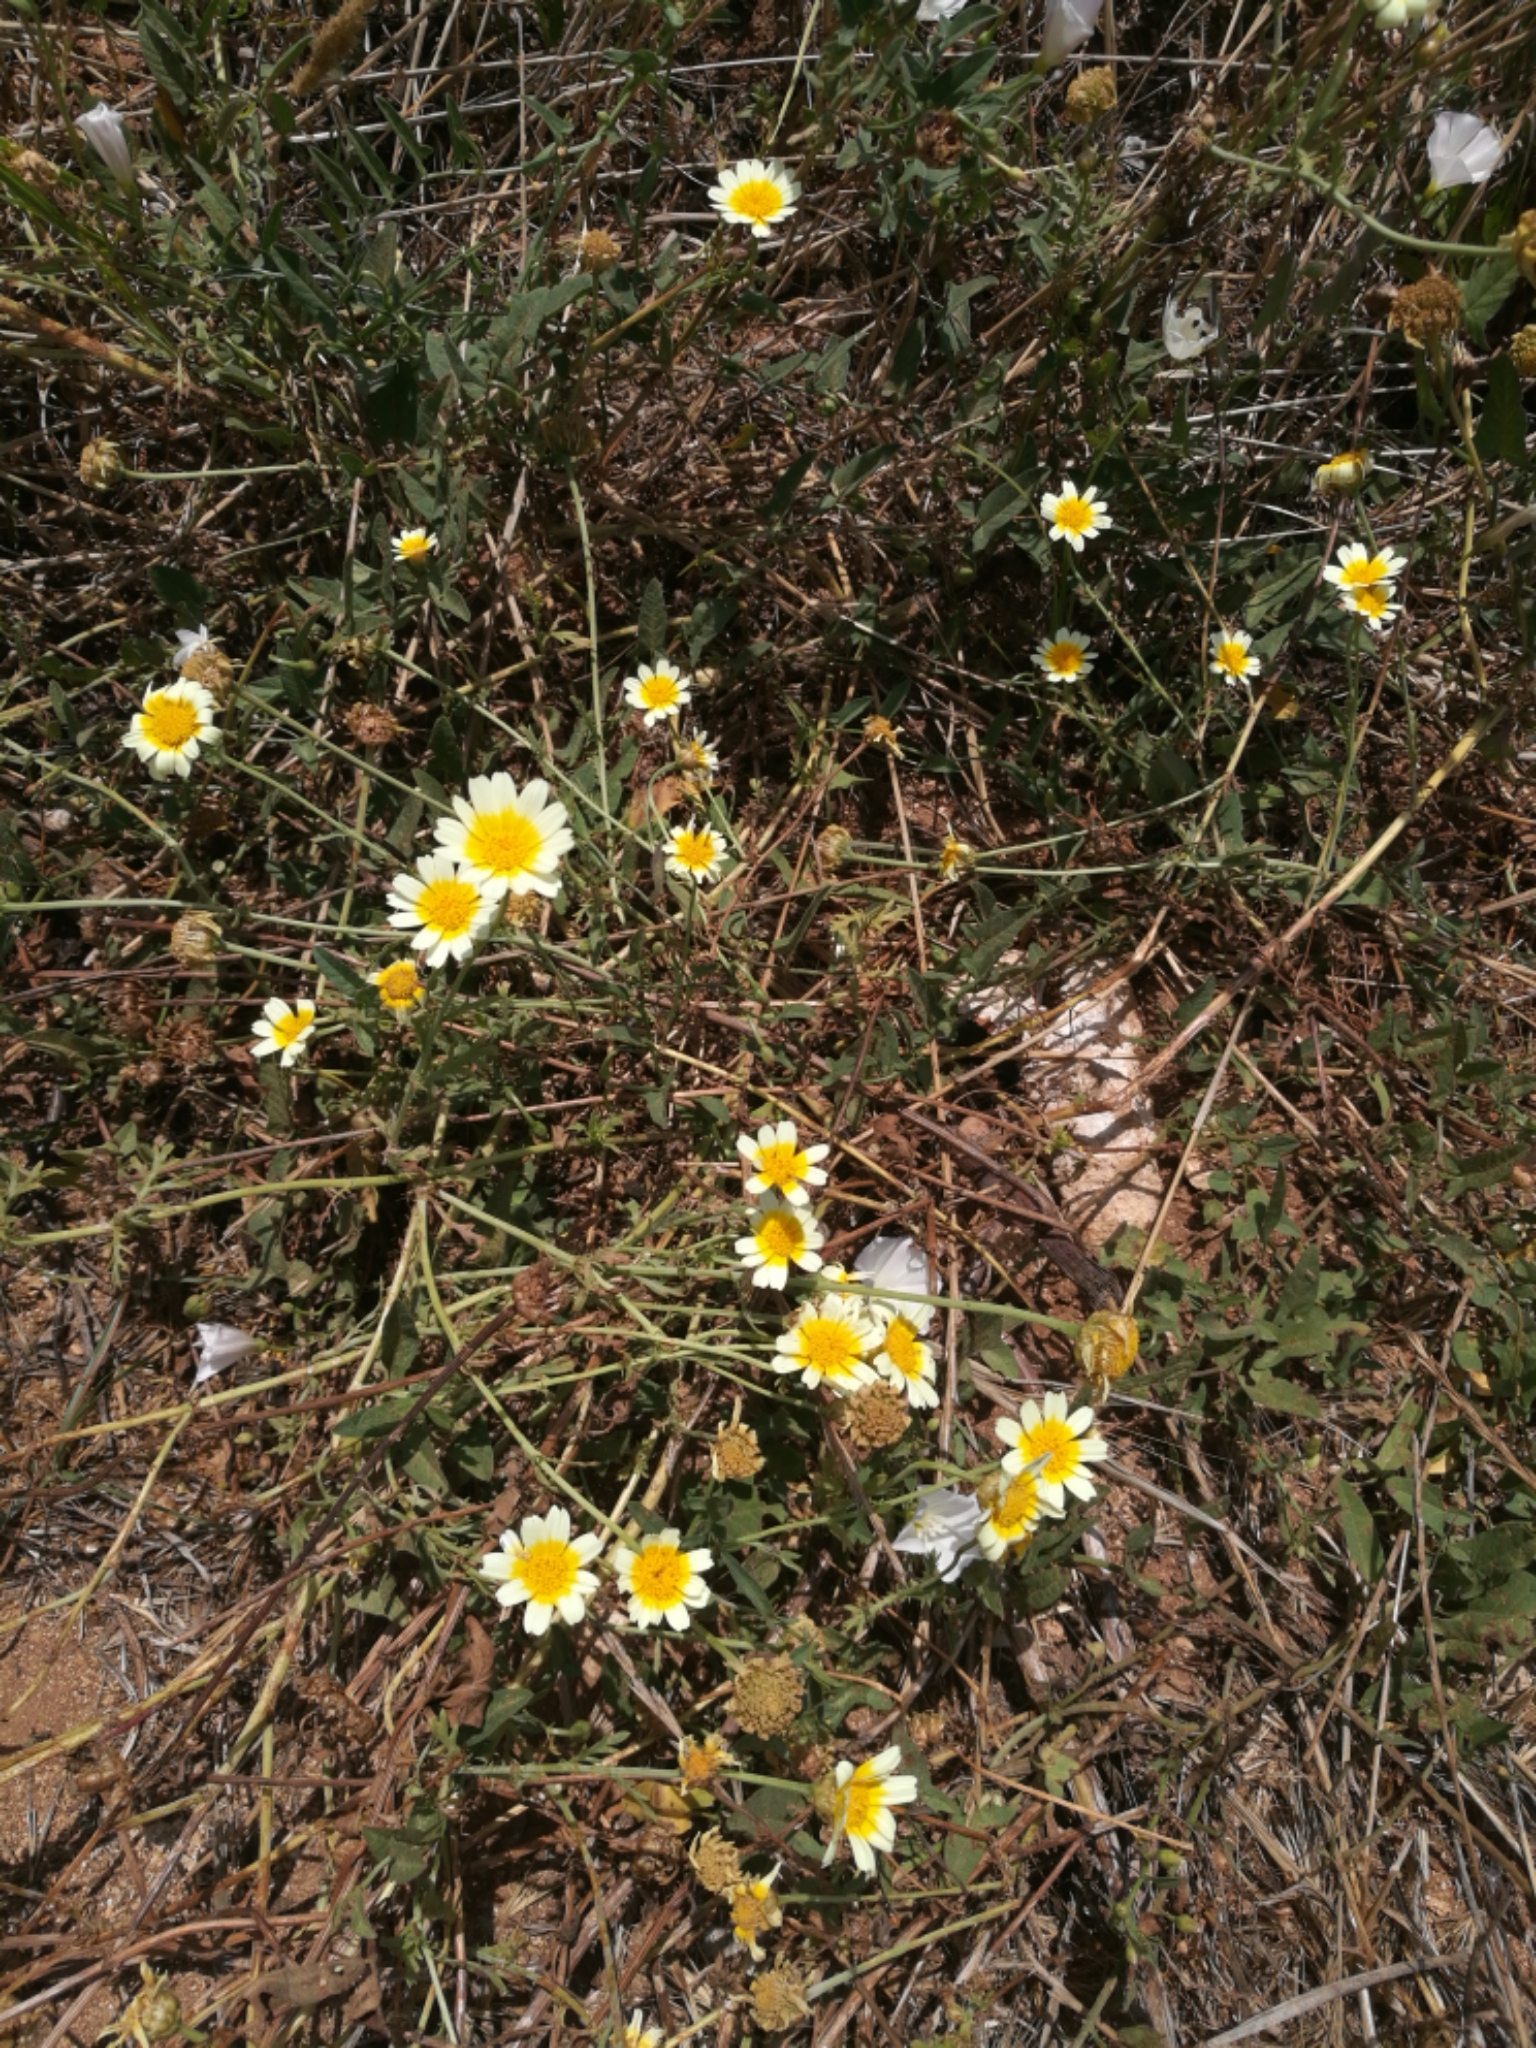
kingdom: Plantae
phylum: Tracheophyta
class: Magnoliopsida
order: Asterales
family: Asteraceae
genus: Glebionis
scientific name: Glebionis coronaria
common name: Crowndaisy
